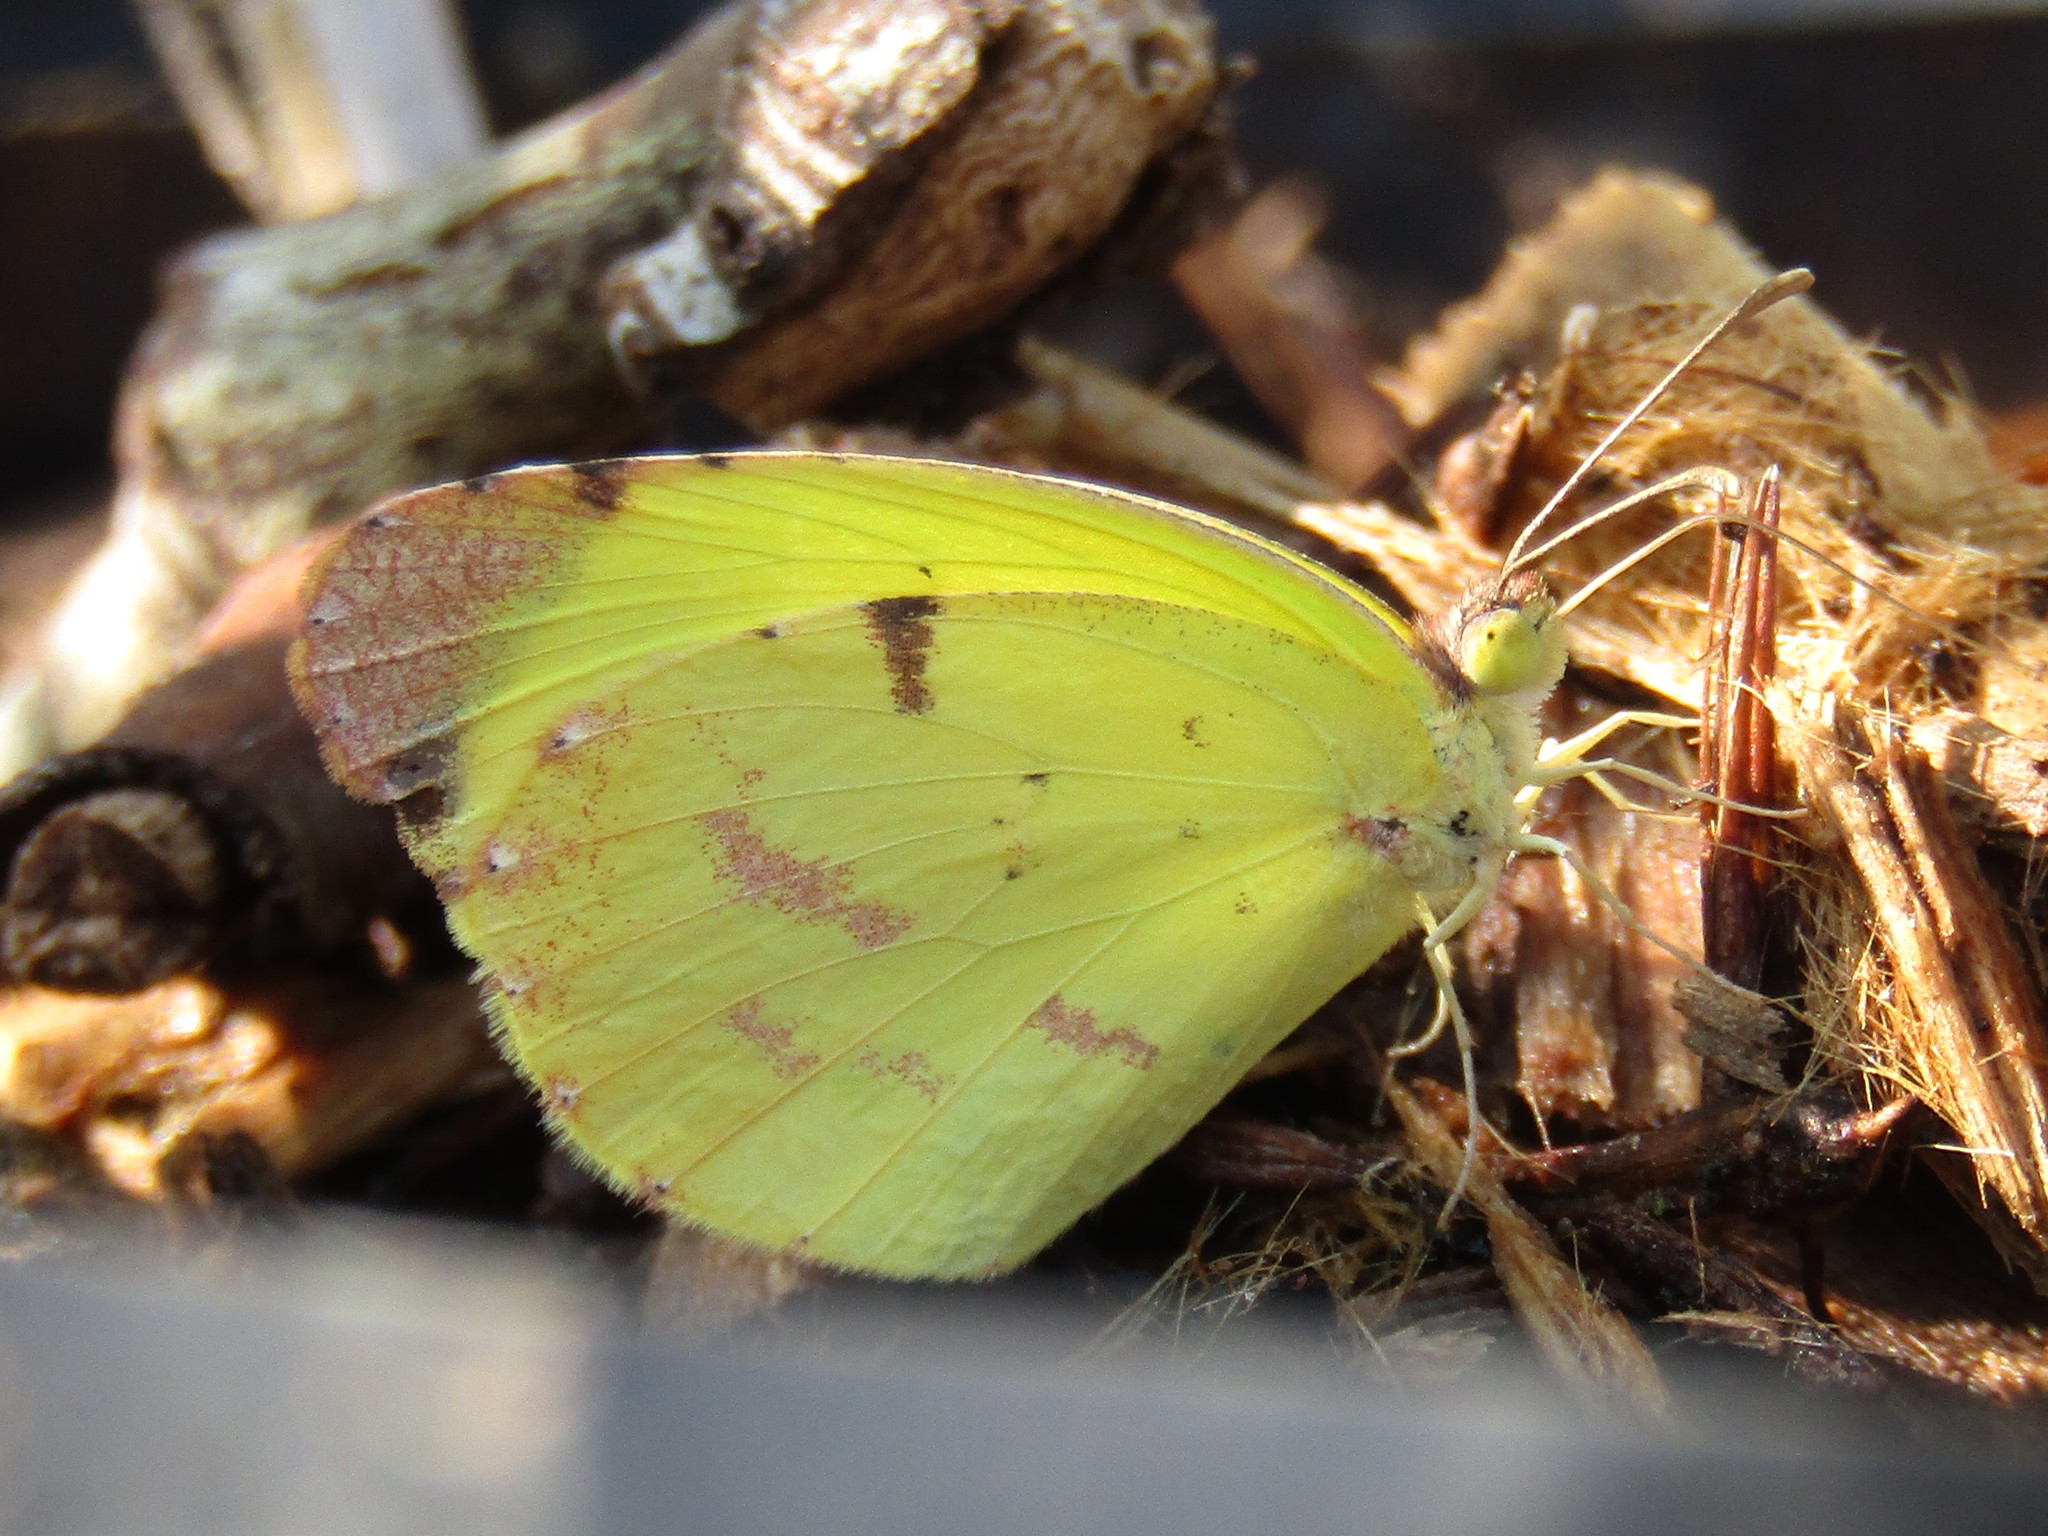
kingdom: Animalia
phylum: Arthropoda
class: Insecta
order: Lepidoptera
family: Pieridae
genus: Teriocolias
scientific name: Teriocolias
